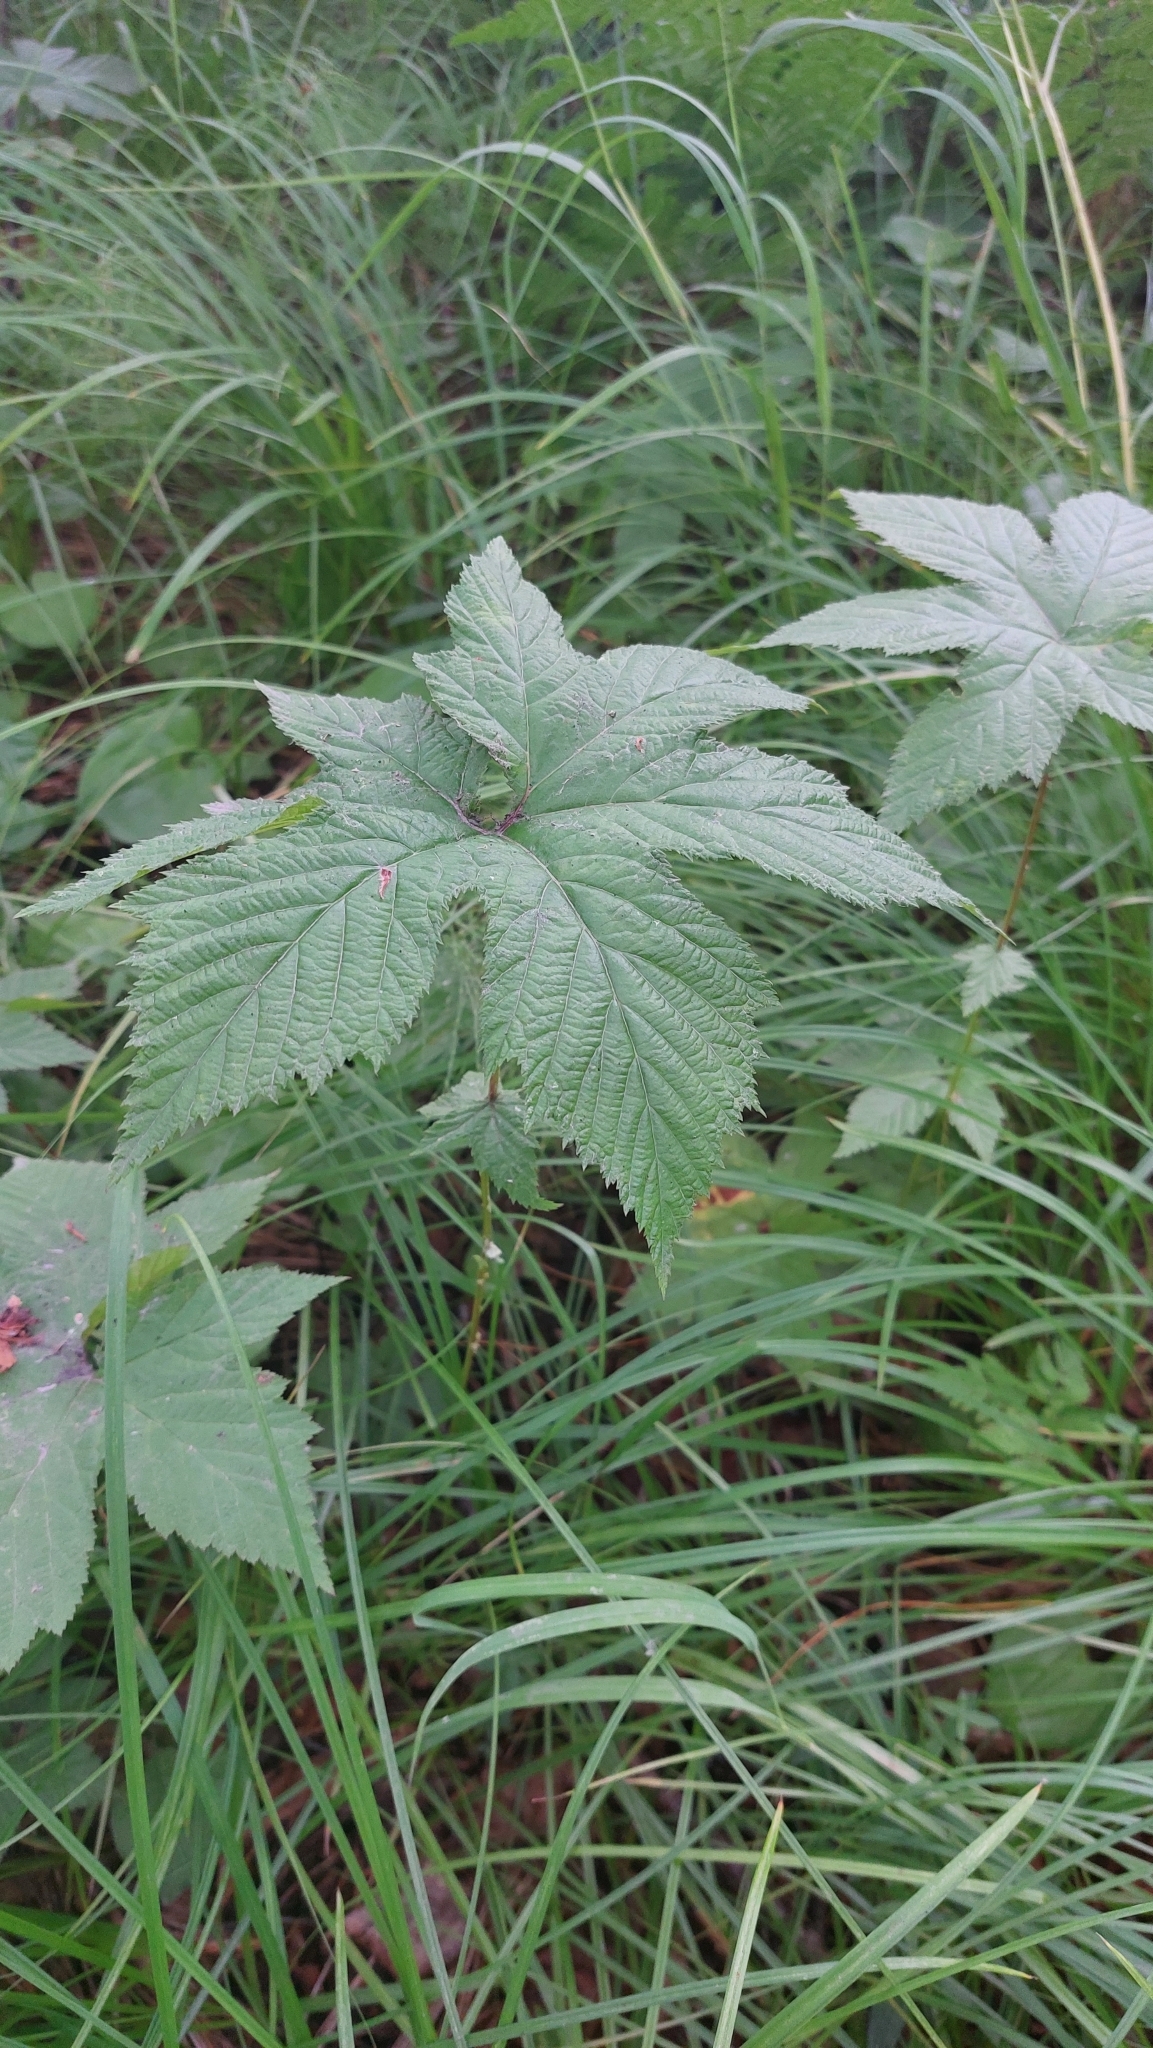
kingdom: Plantae
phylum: Tracheophyta
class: Magnoliopsida
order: Rosales
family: Rosaceae
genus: Filipendula
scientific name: Filipendula digitata
